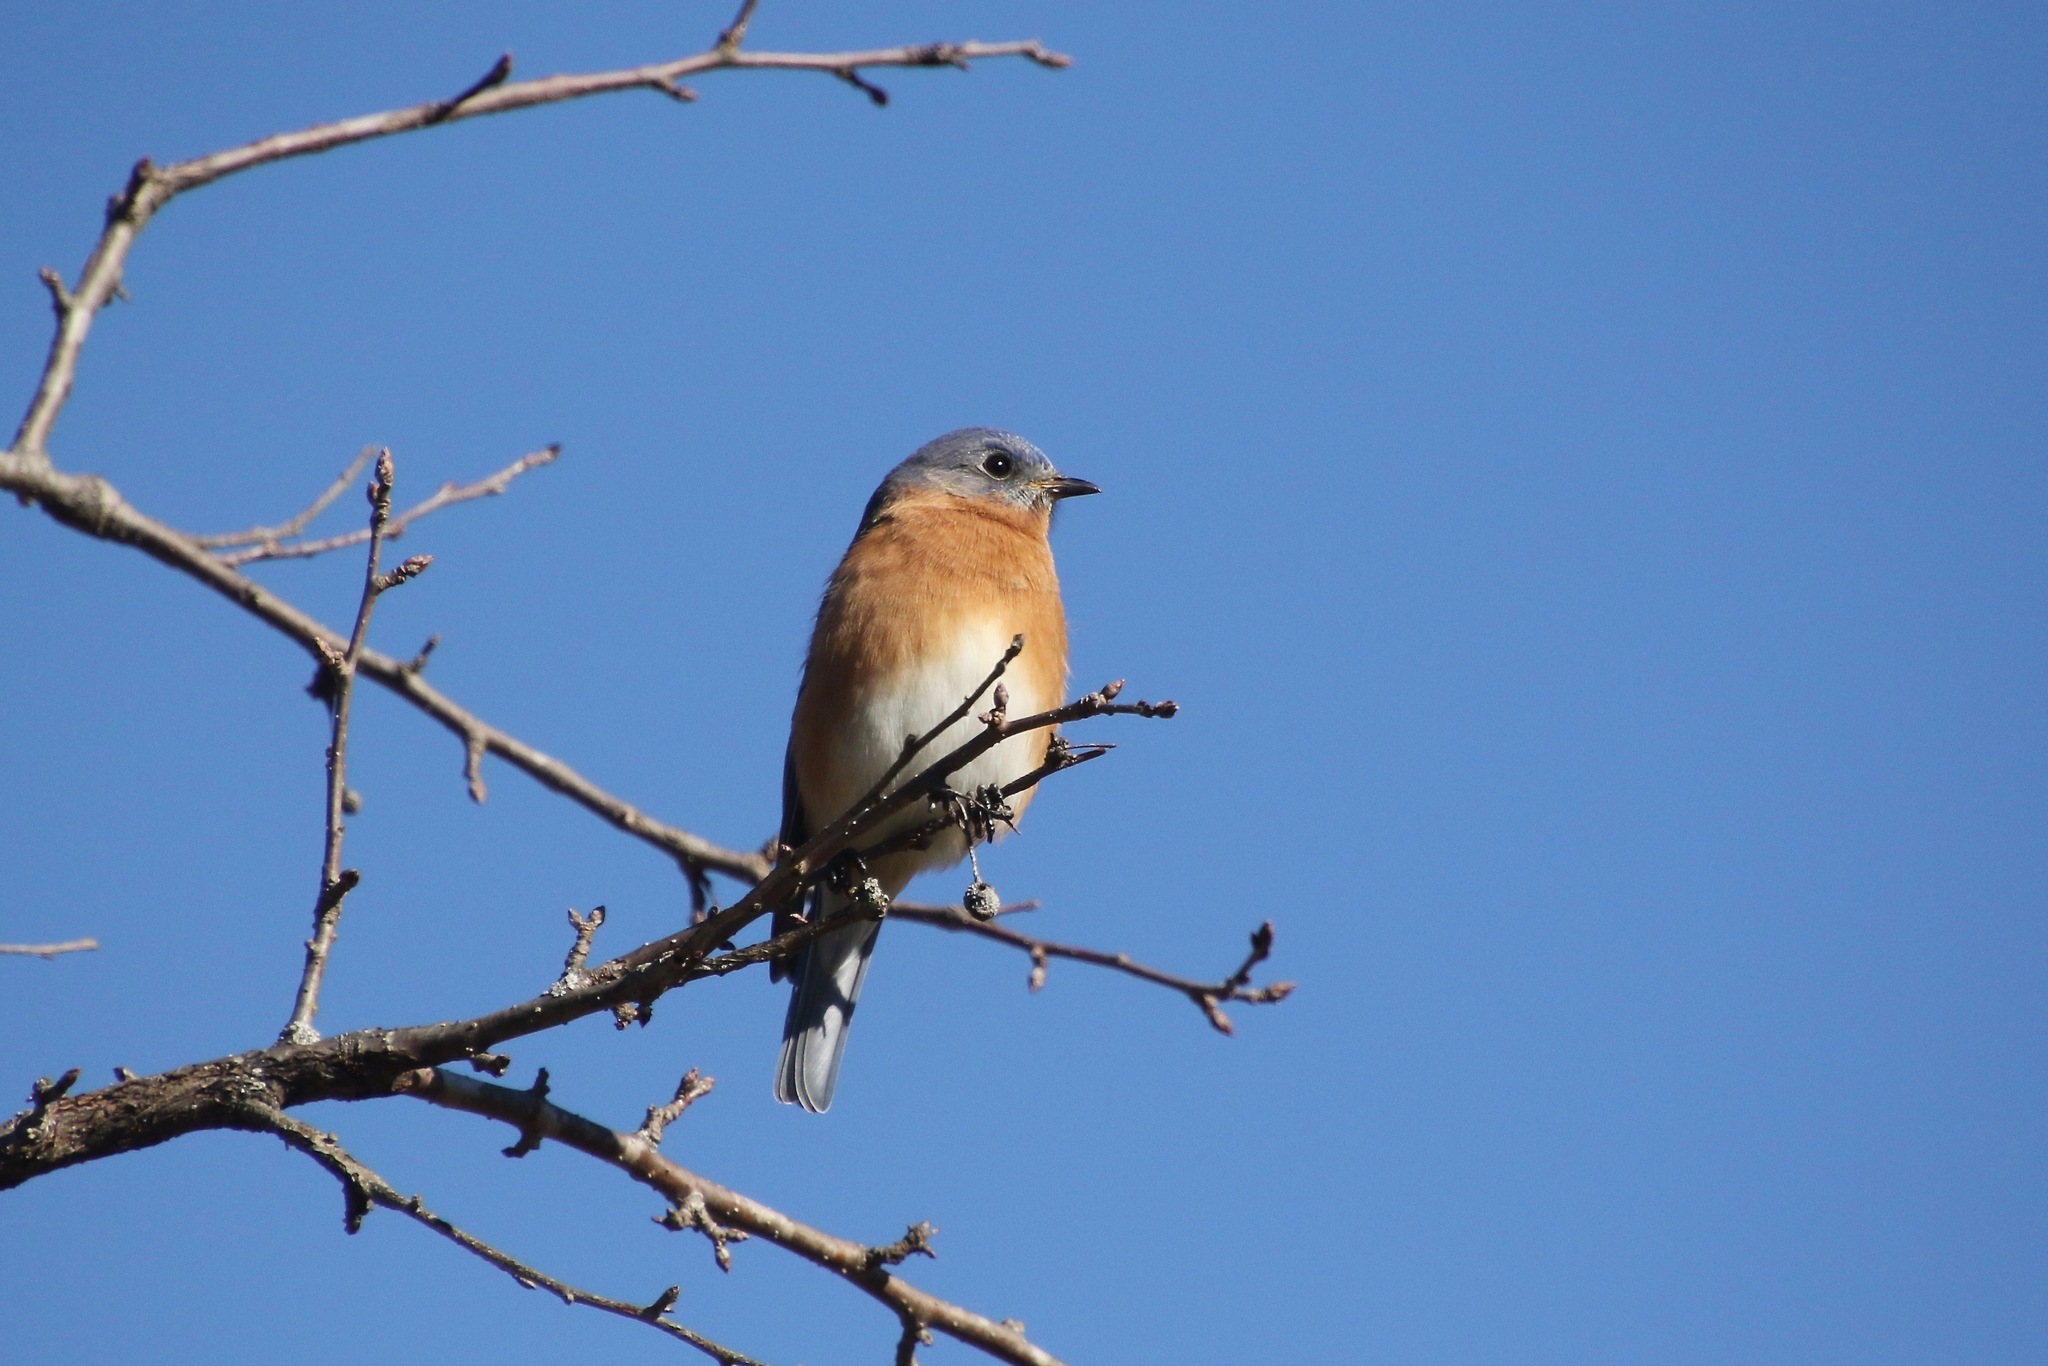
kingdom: Animalia
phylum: Chordata
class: Aves
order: Passeriformes
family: Turdidae
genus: Sialia
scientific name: Sialia sialis
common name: Eastern bluebird
